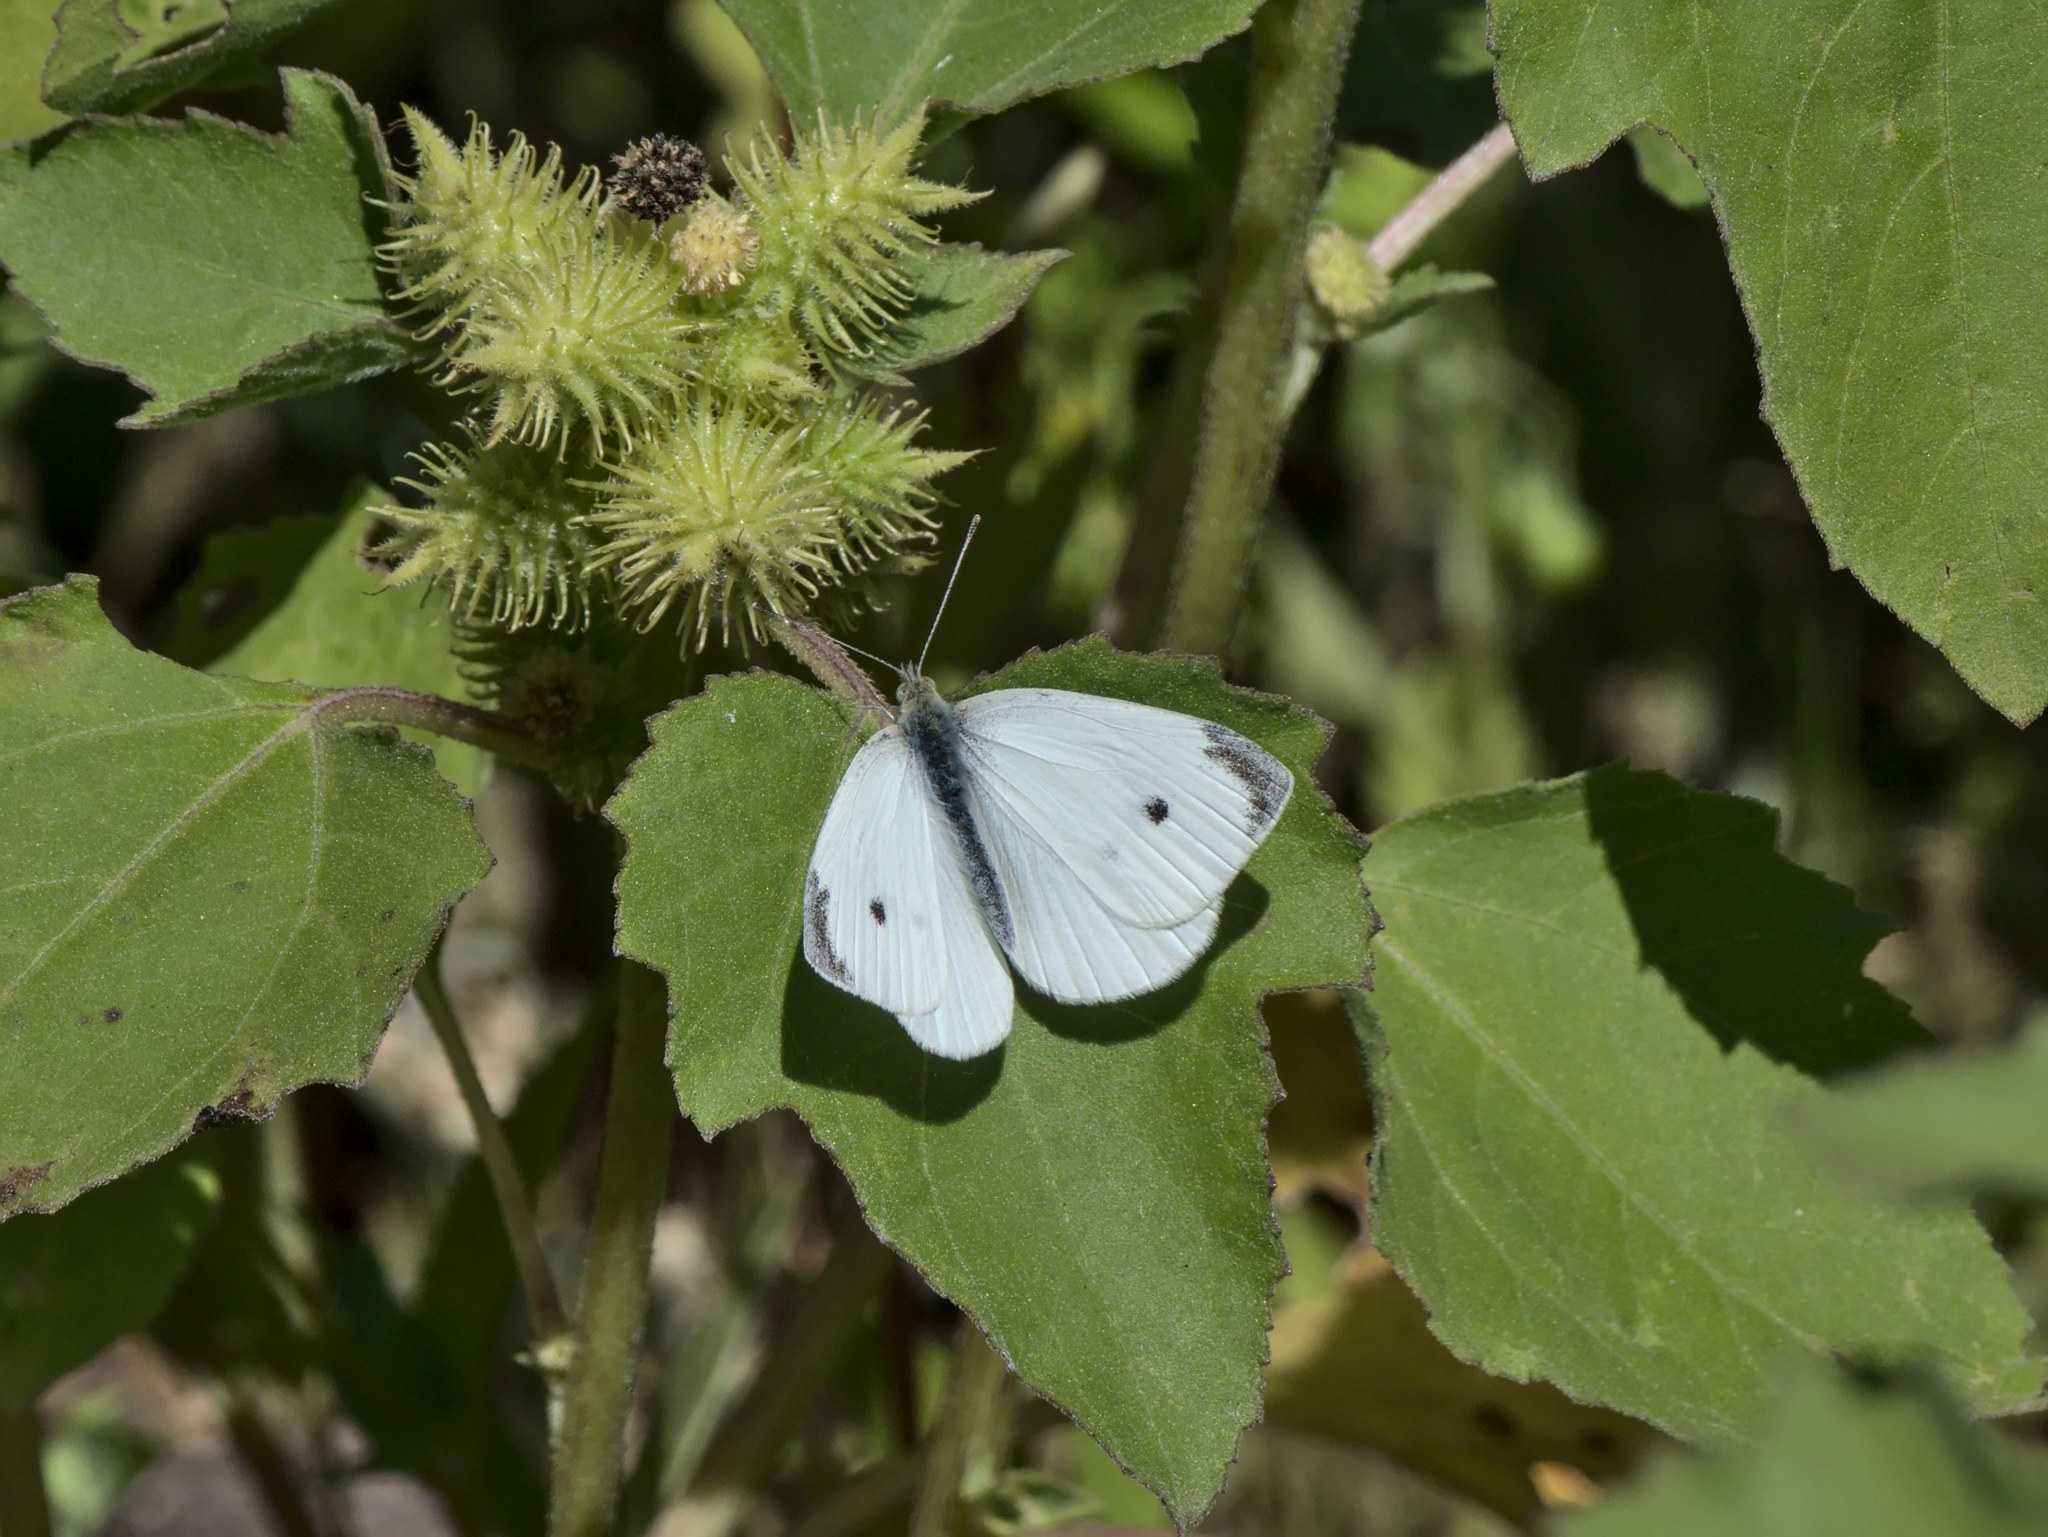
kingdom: Animalia
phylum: Arthropoda
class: Insecta
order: Lepidoptera
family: Pieridae
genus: Pieris
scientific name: Pieris rapae
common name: Small white
